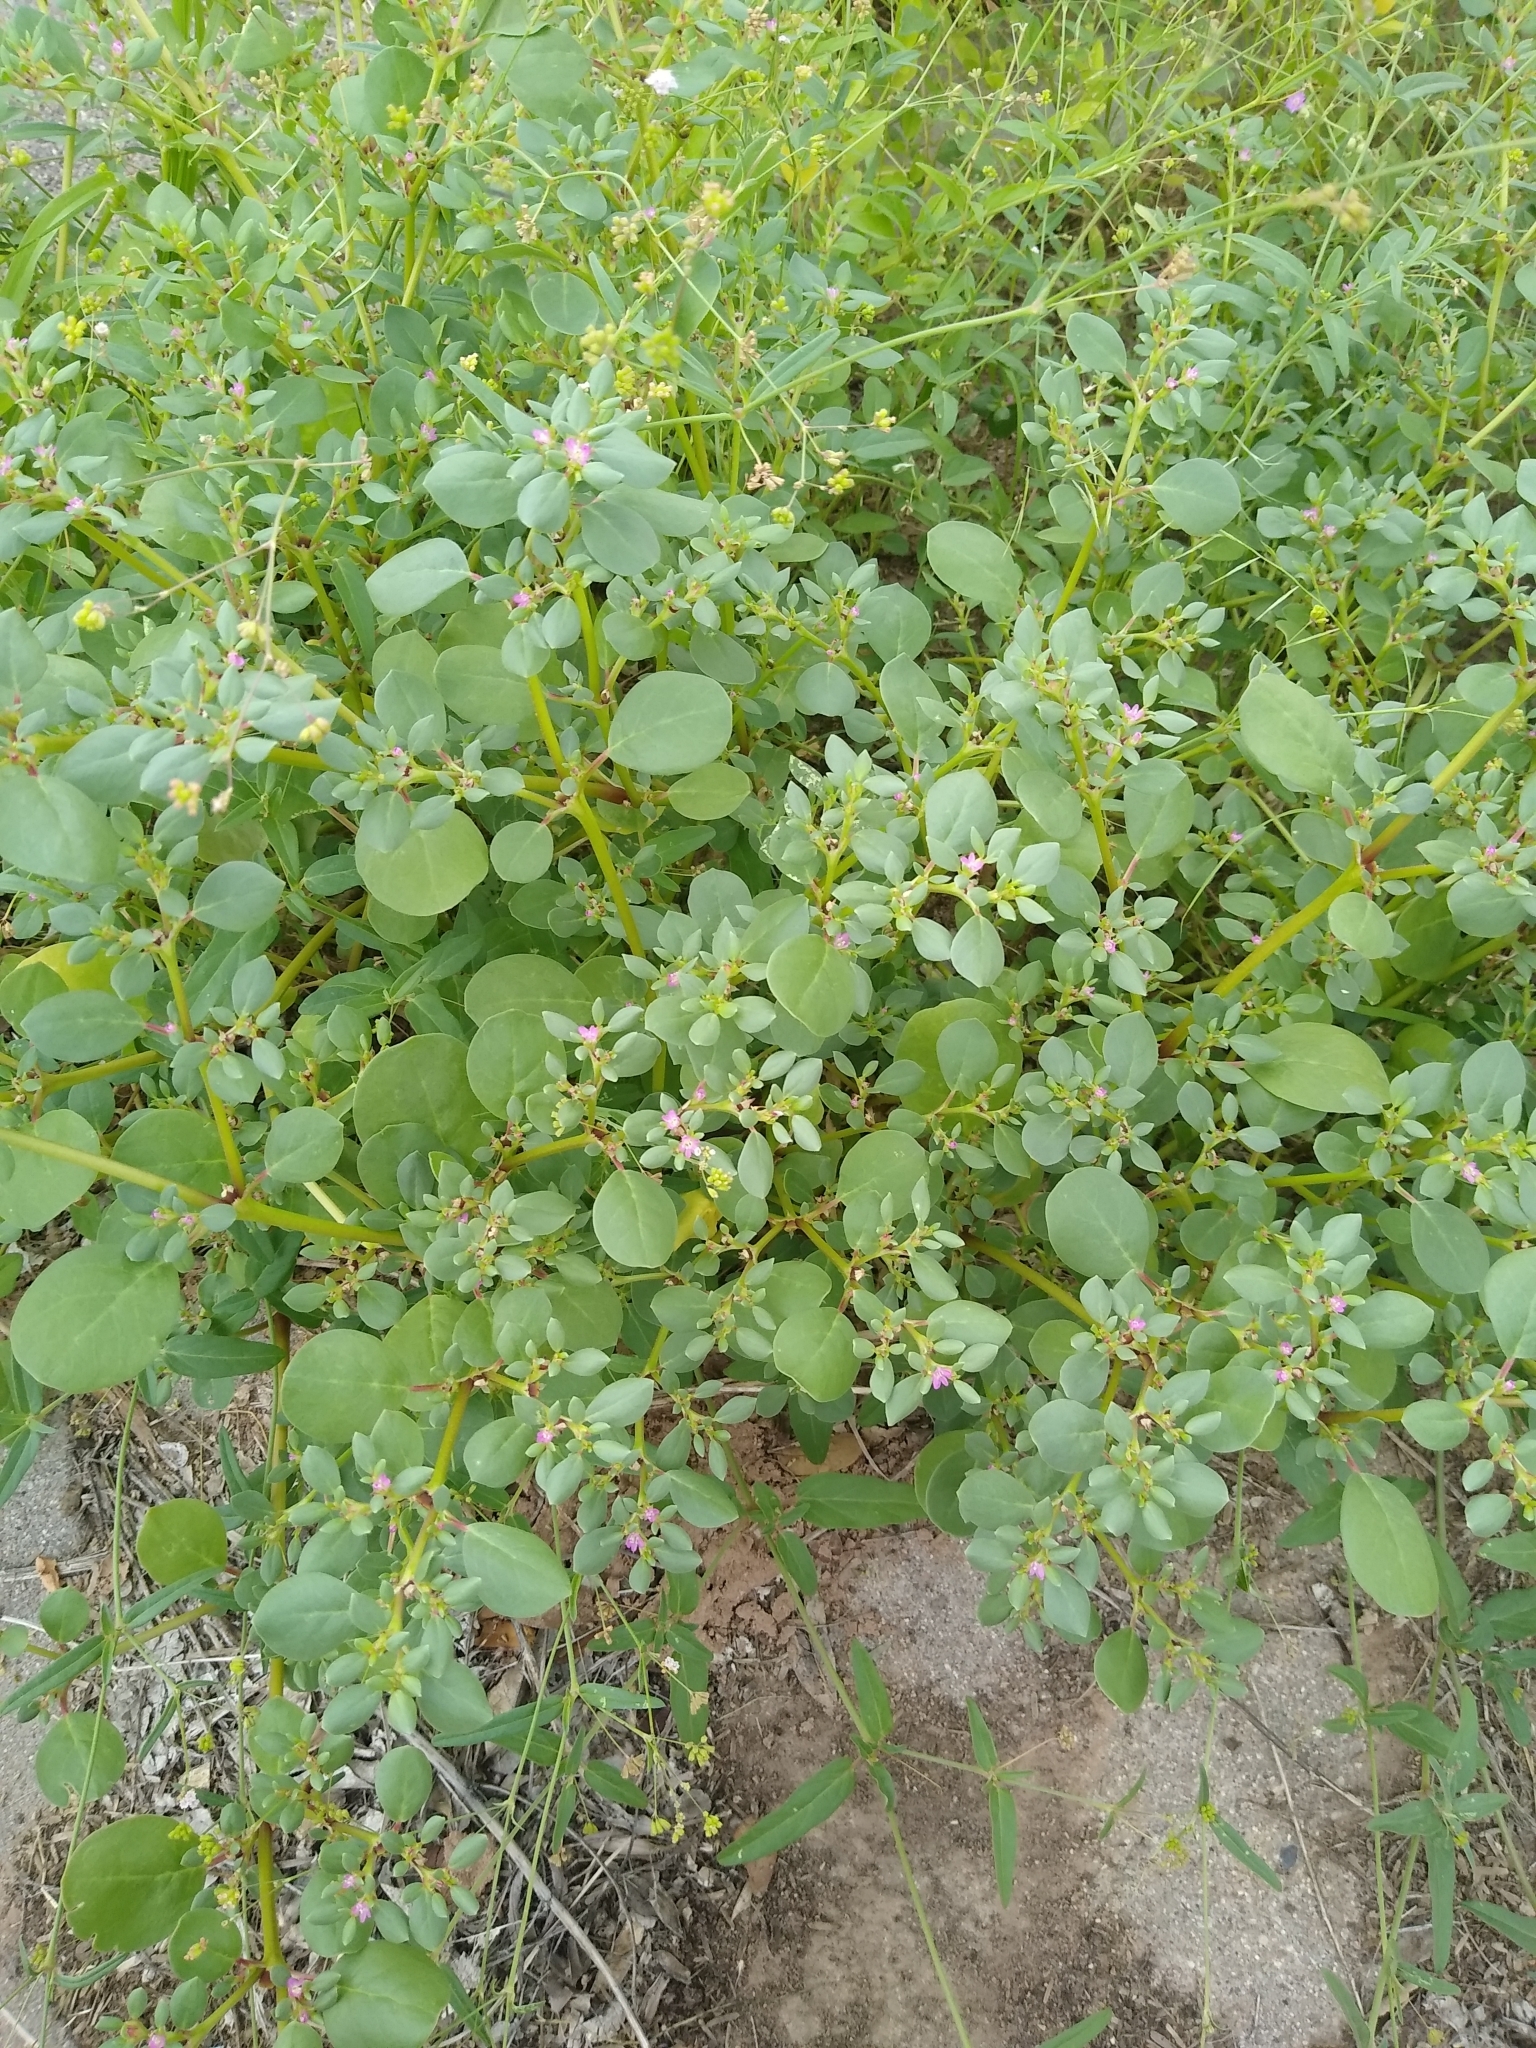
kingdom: Plantae
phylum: Tracheophyta
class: Magnoliopsida
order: Caryophyllales
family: Aizoaceae
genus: Trianthema
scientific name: Trianthema portulacastrum
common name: Desert horsepurslane
